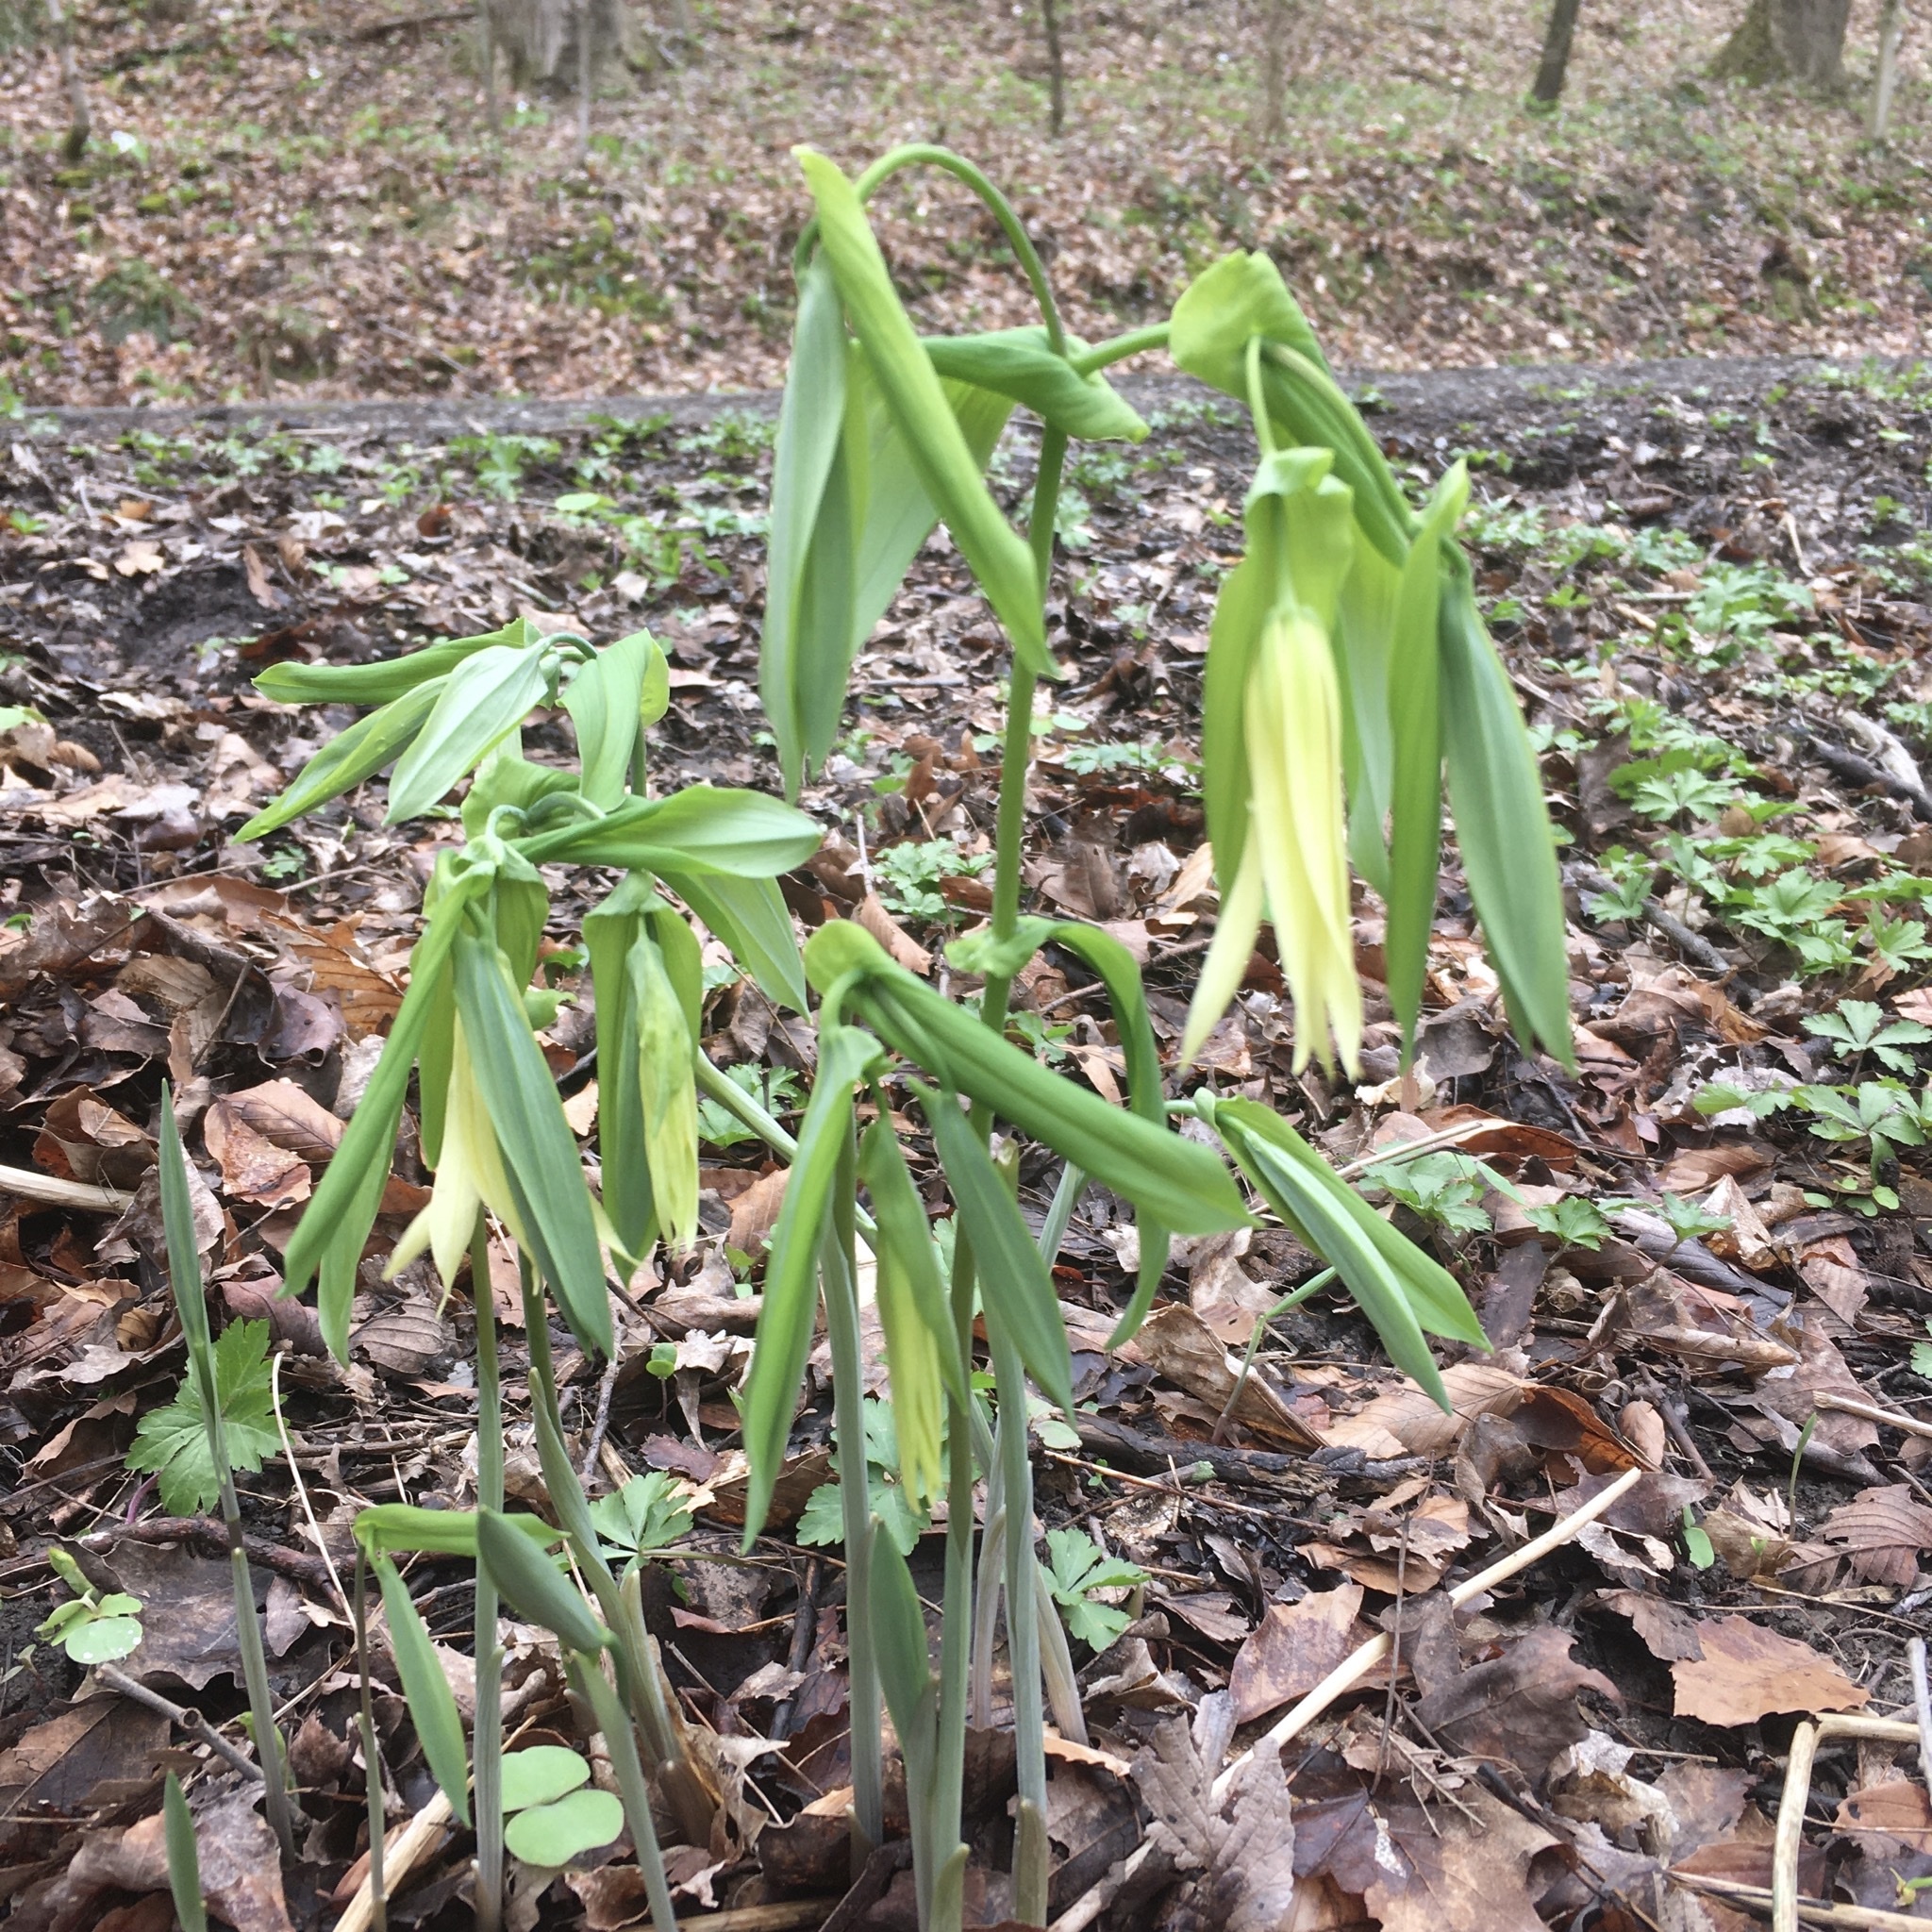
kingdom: Plantae
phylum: Tracheophyta
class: Liliopsida
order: Liliales
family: Colchicaceae
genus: Uvularia
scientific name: Uvularia grandiflora
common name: Bellwort
